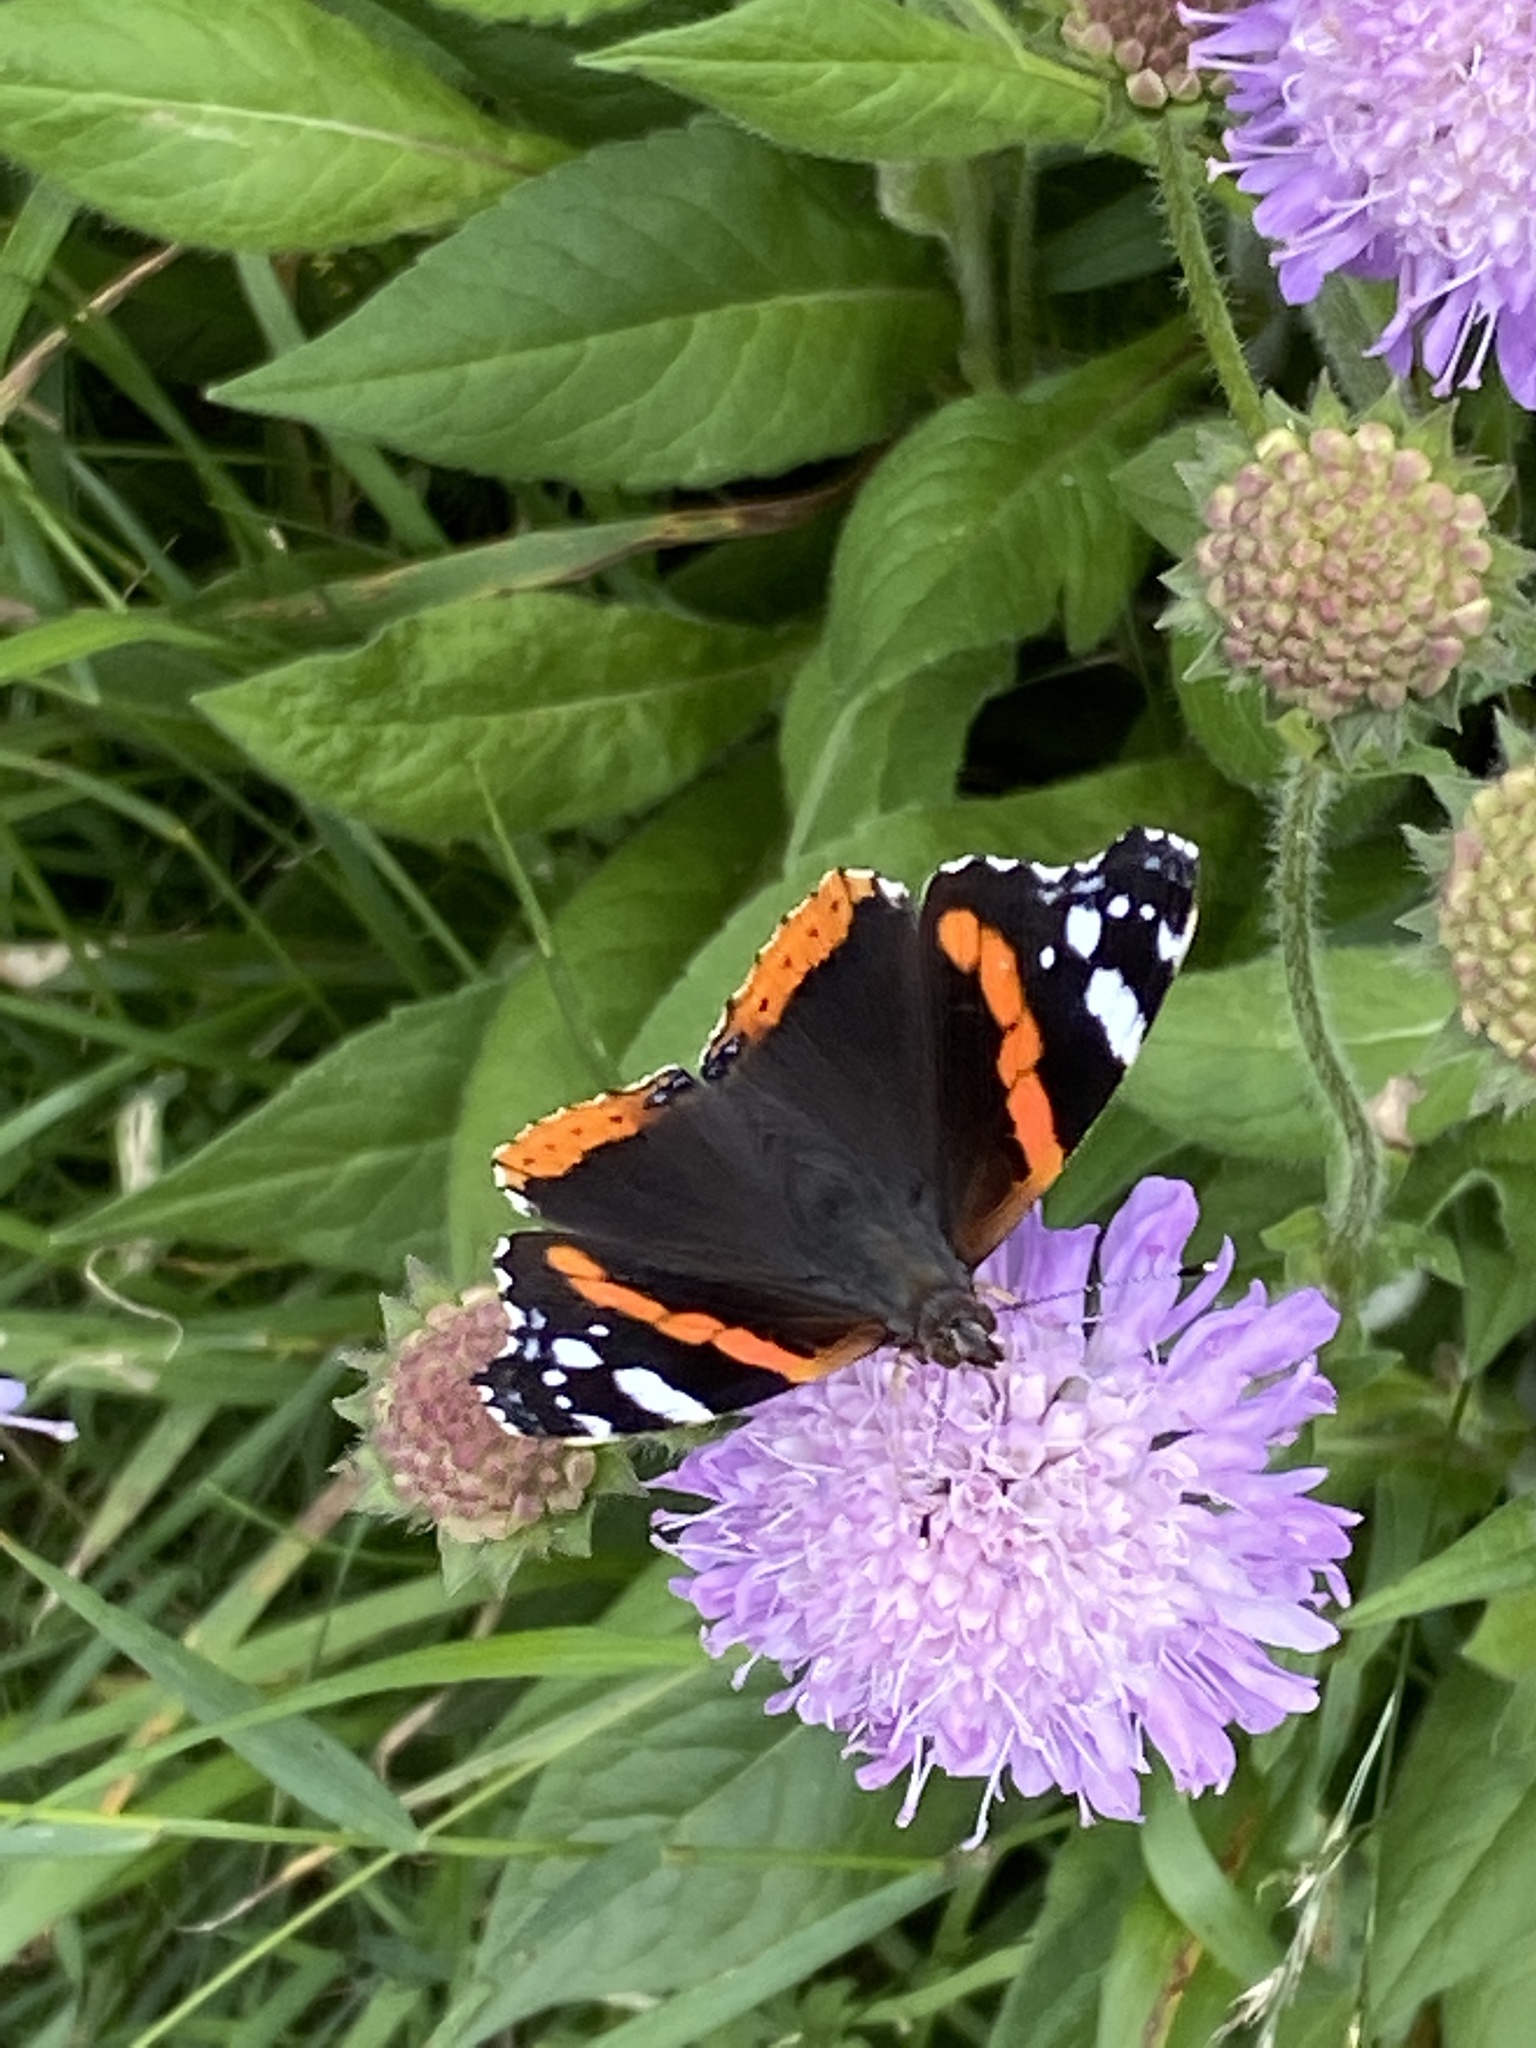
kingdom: Animalia
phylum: Arthropoda
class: Insecta
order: Lepidoptera
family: Nymphalidae
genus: Vanessa
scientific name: Vanessa atalanta
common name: Red admiral
